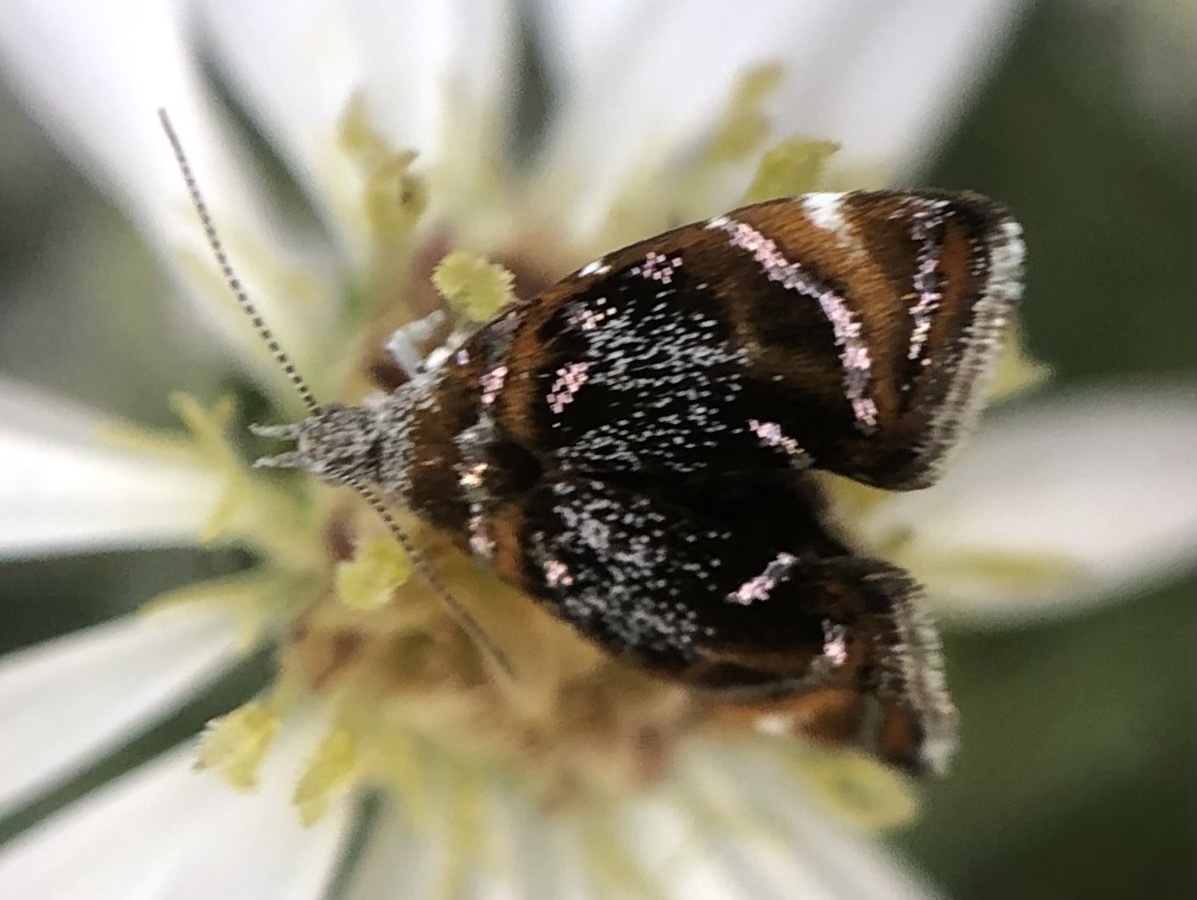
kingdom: Animalia
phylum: Arthropoda
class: Insecta
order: Lepidoptera
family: Choreutidae
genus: Prochoreutis
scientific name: Prochoreutis inflatella
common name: Skullcap skeletonizer moth
